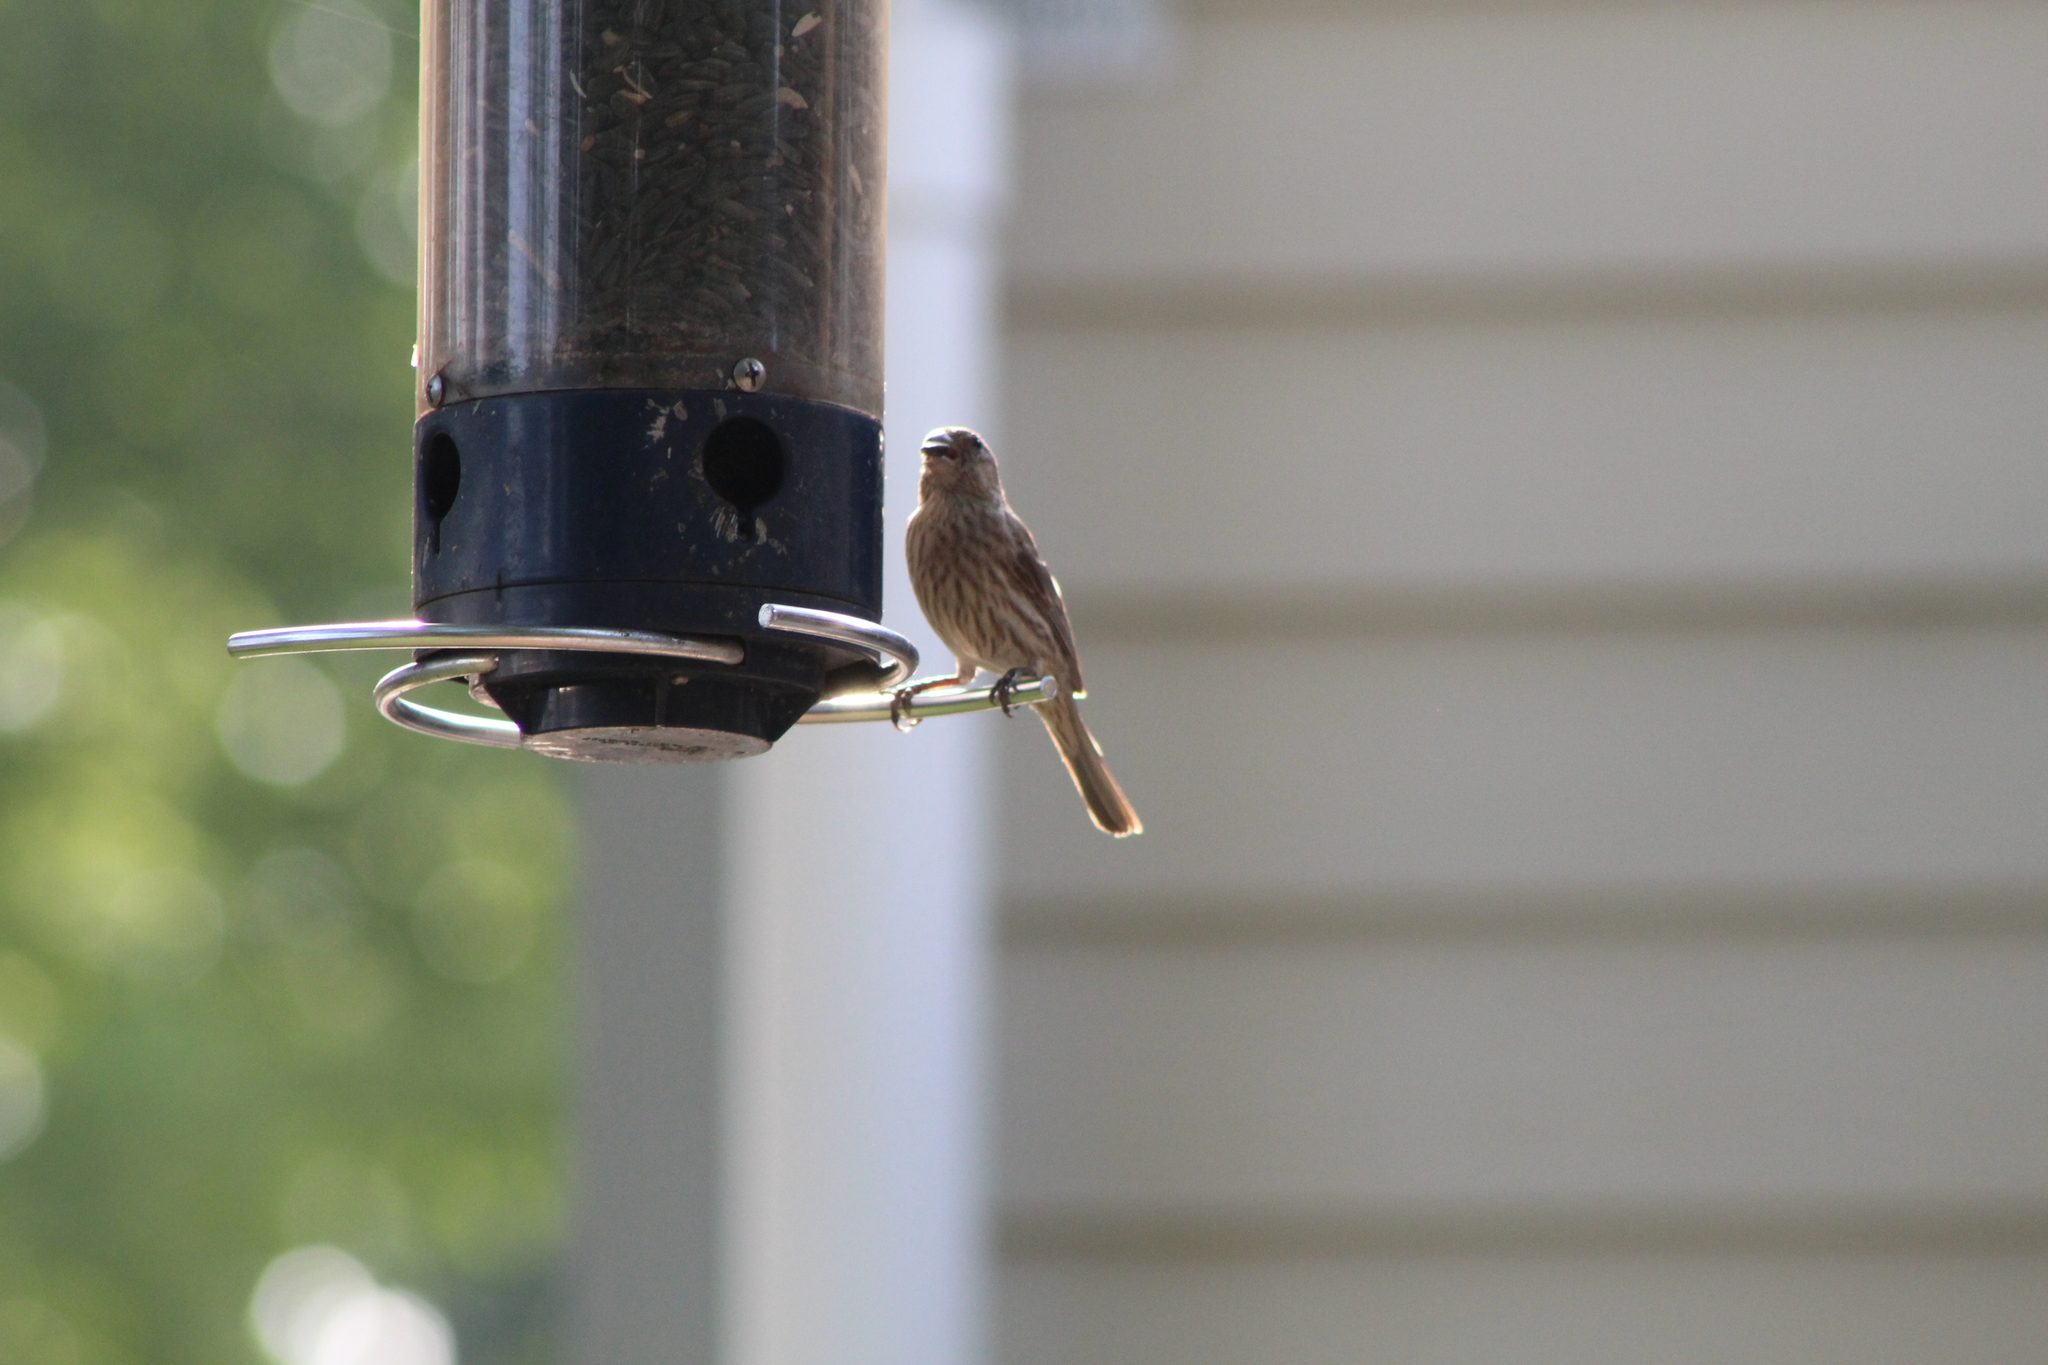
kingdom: Animalia
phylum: Chordata
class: Aves
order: Passeriformes
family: Fringillidae
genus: Haemorhous
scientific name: Haemorhous mexicanus
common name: House finch
